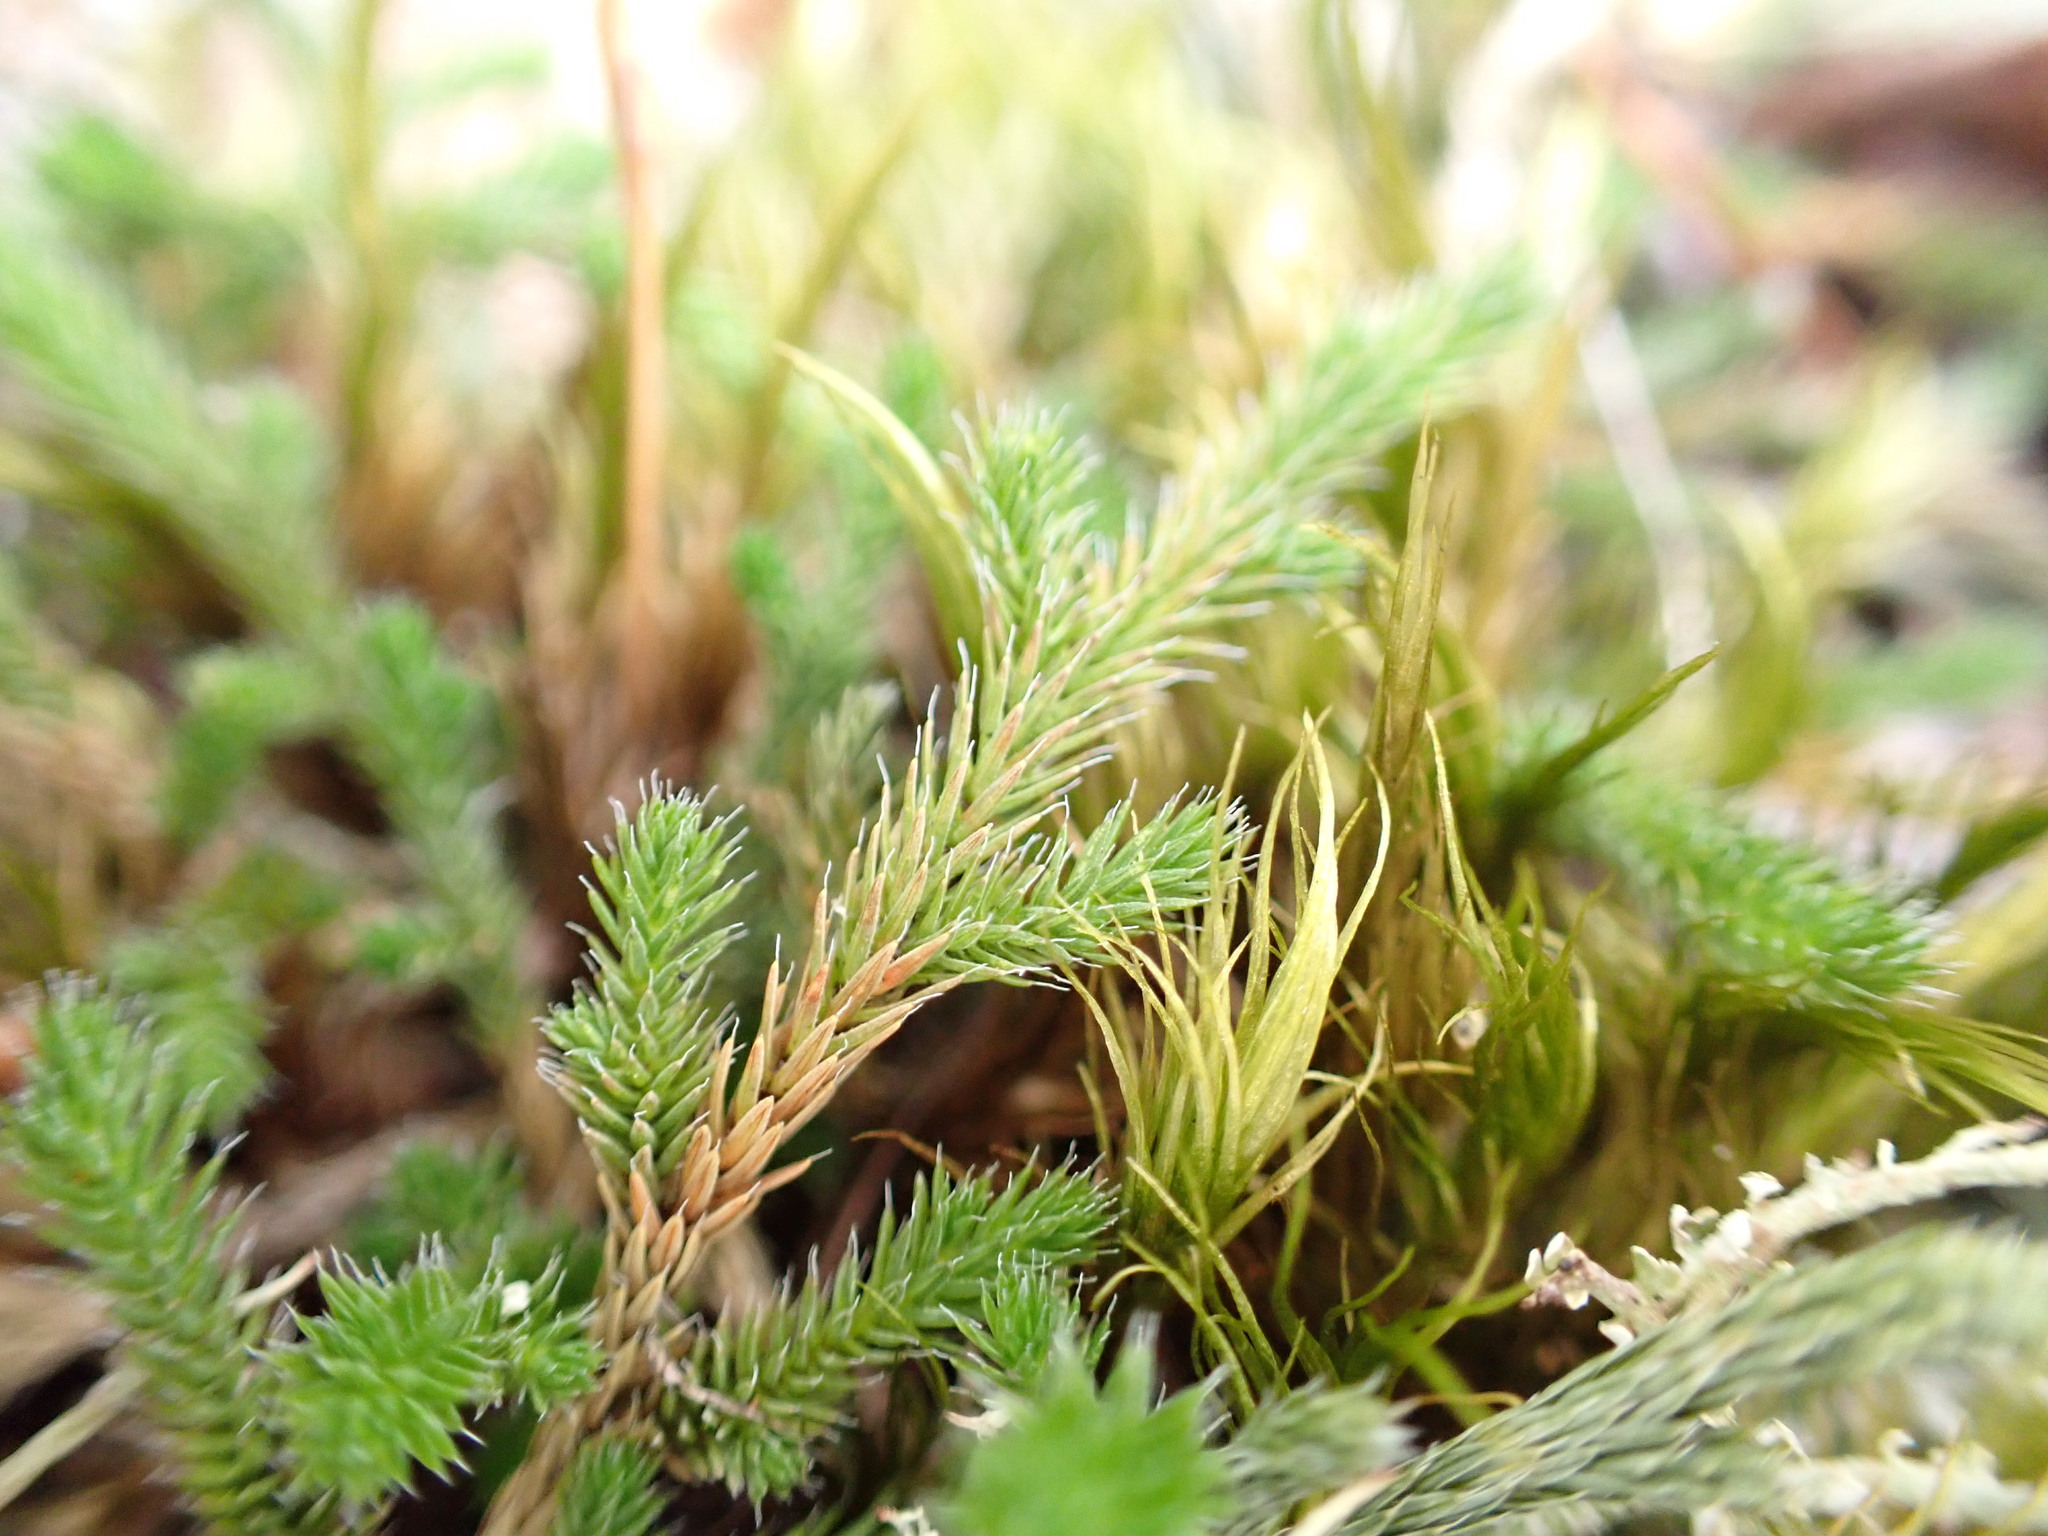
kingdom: Plantae
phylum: Tracheophyta
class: Lycopodiopsida
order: Selaginellales
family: Selaginellaceae
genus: Selaginella
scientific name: Selaginella wallacei
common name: Wallace's selaginella
